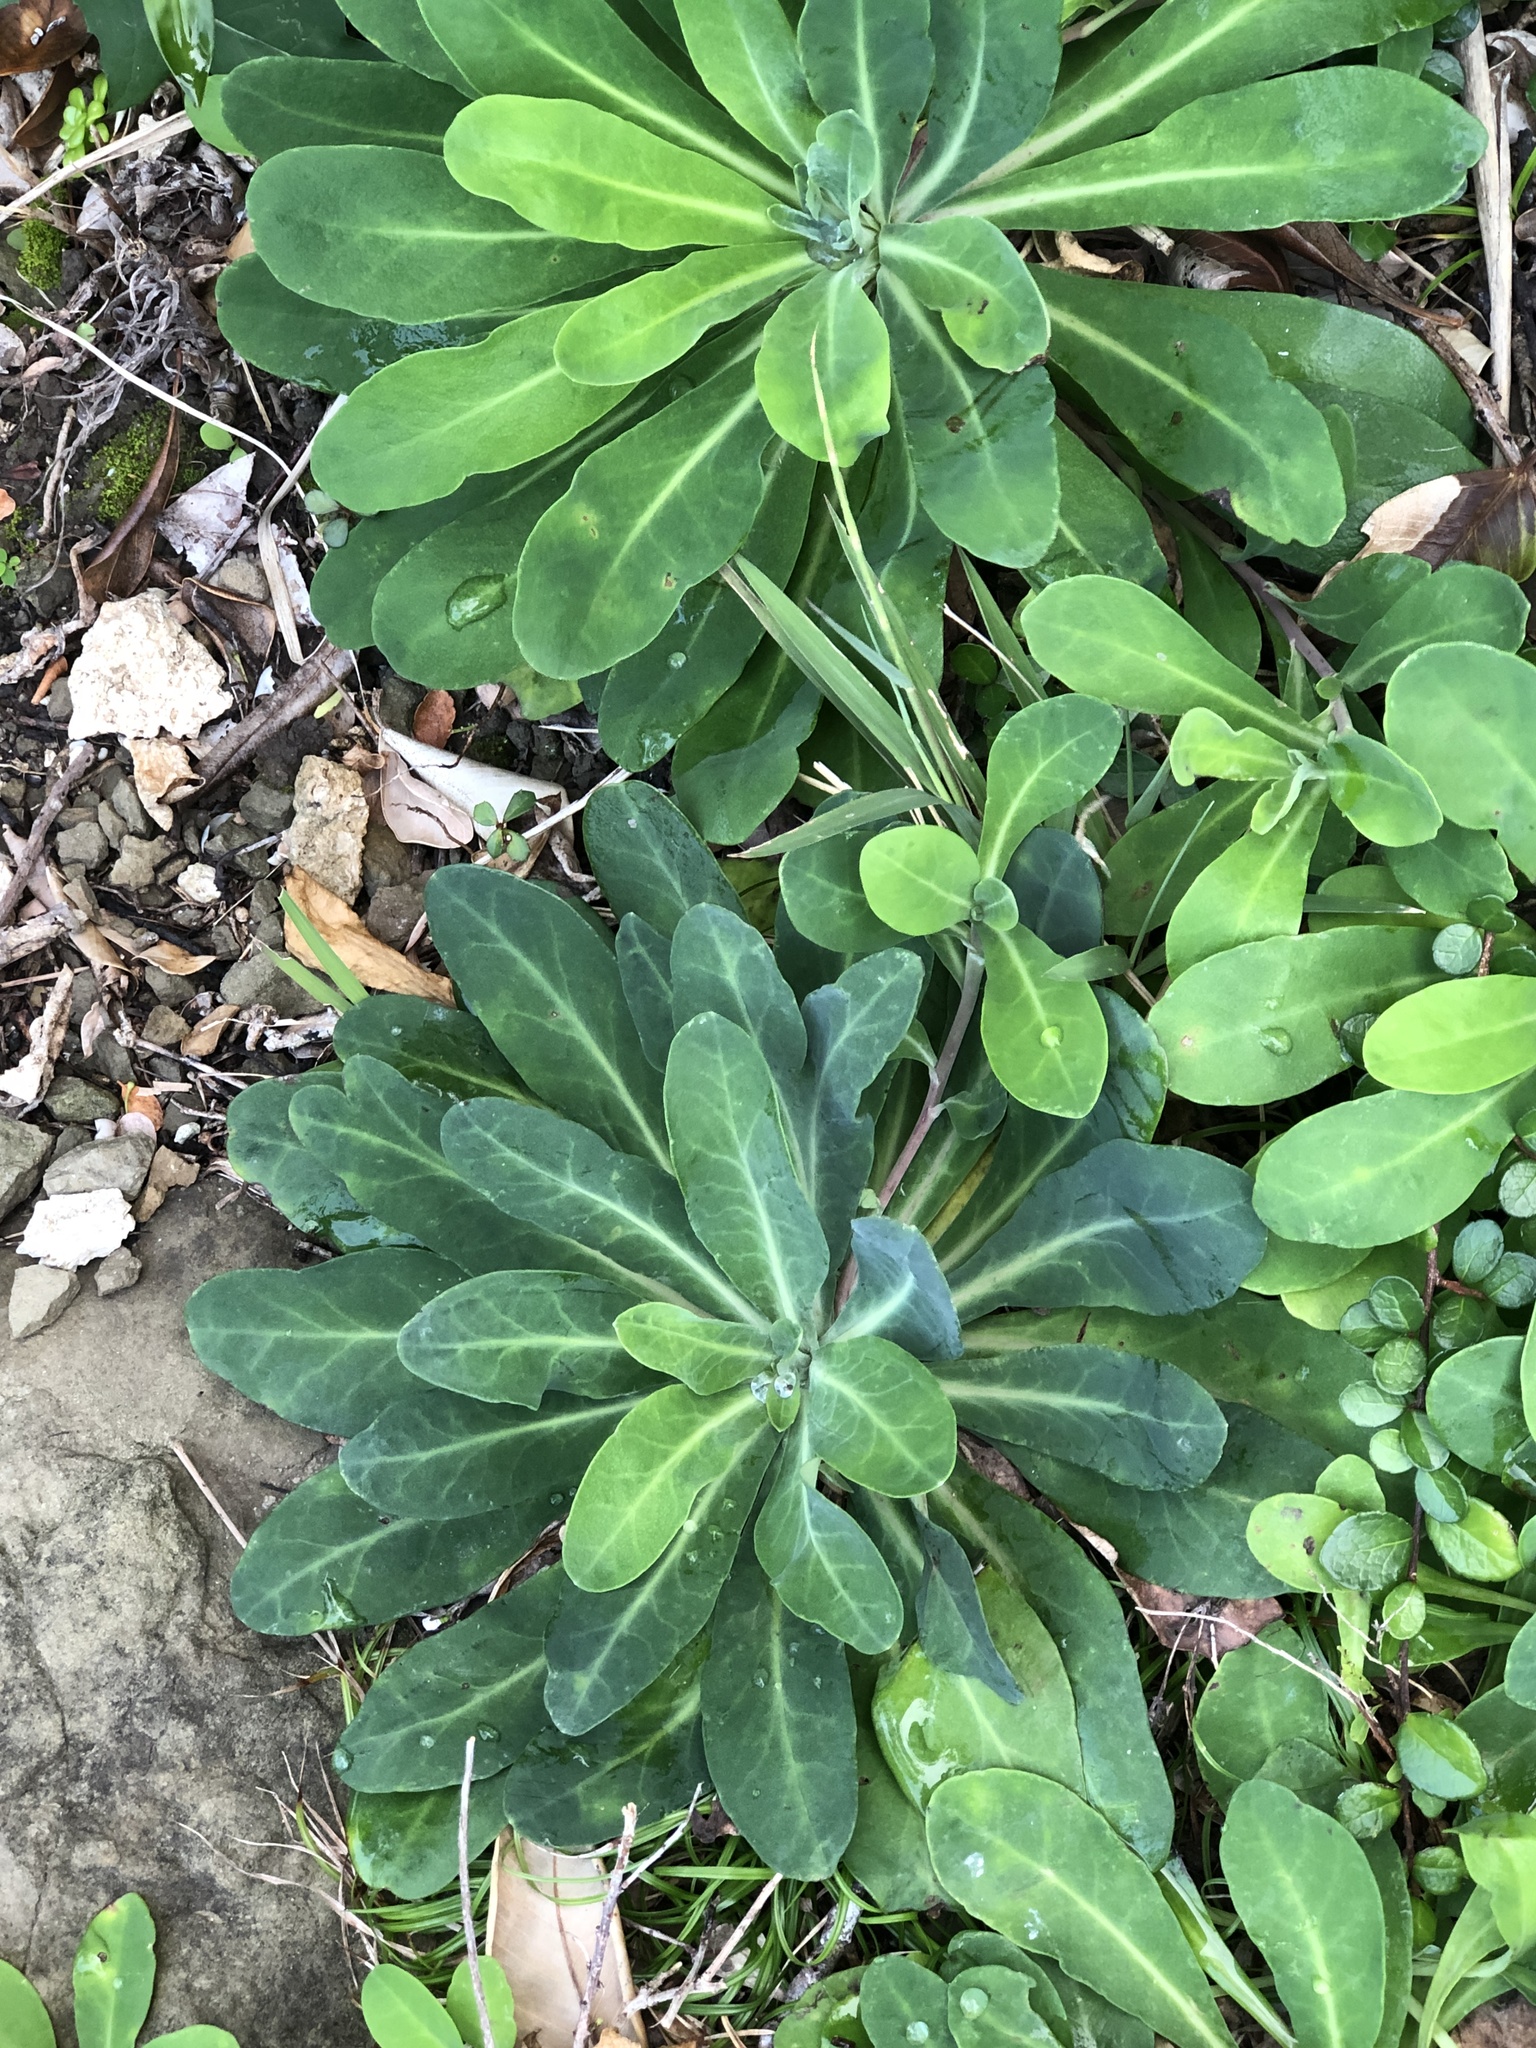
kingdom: Plantae
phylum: Tracheophyta
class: Magnoliopsida
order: Asterales
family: Asteraceae
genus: Crepidiastrum
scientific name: Crepidiastrum lanceolatum
